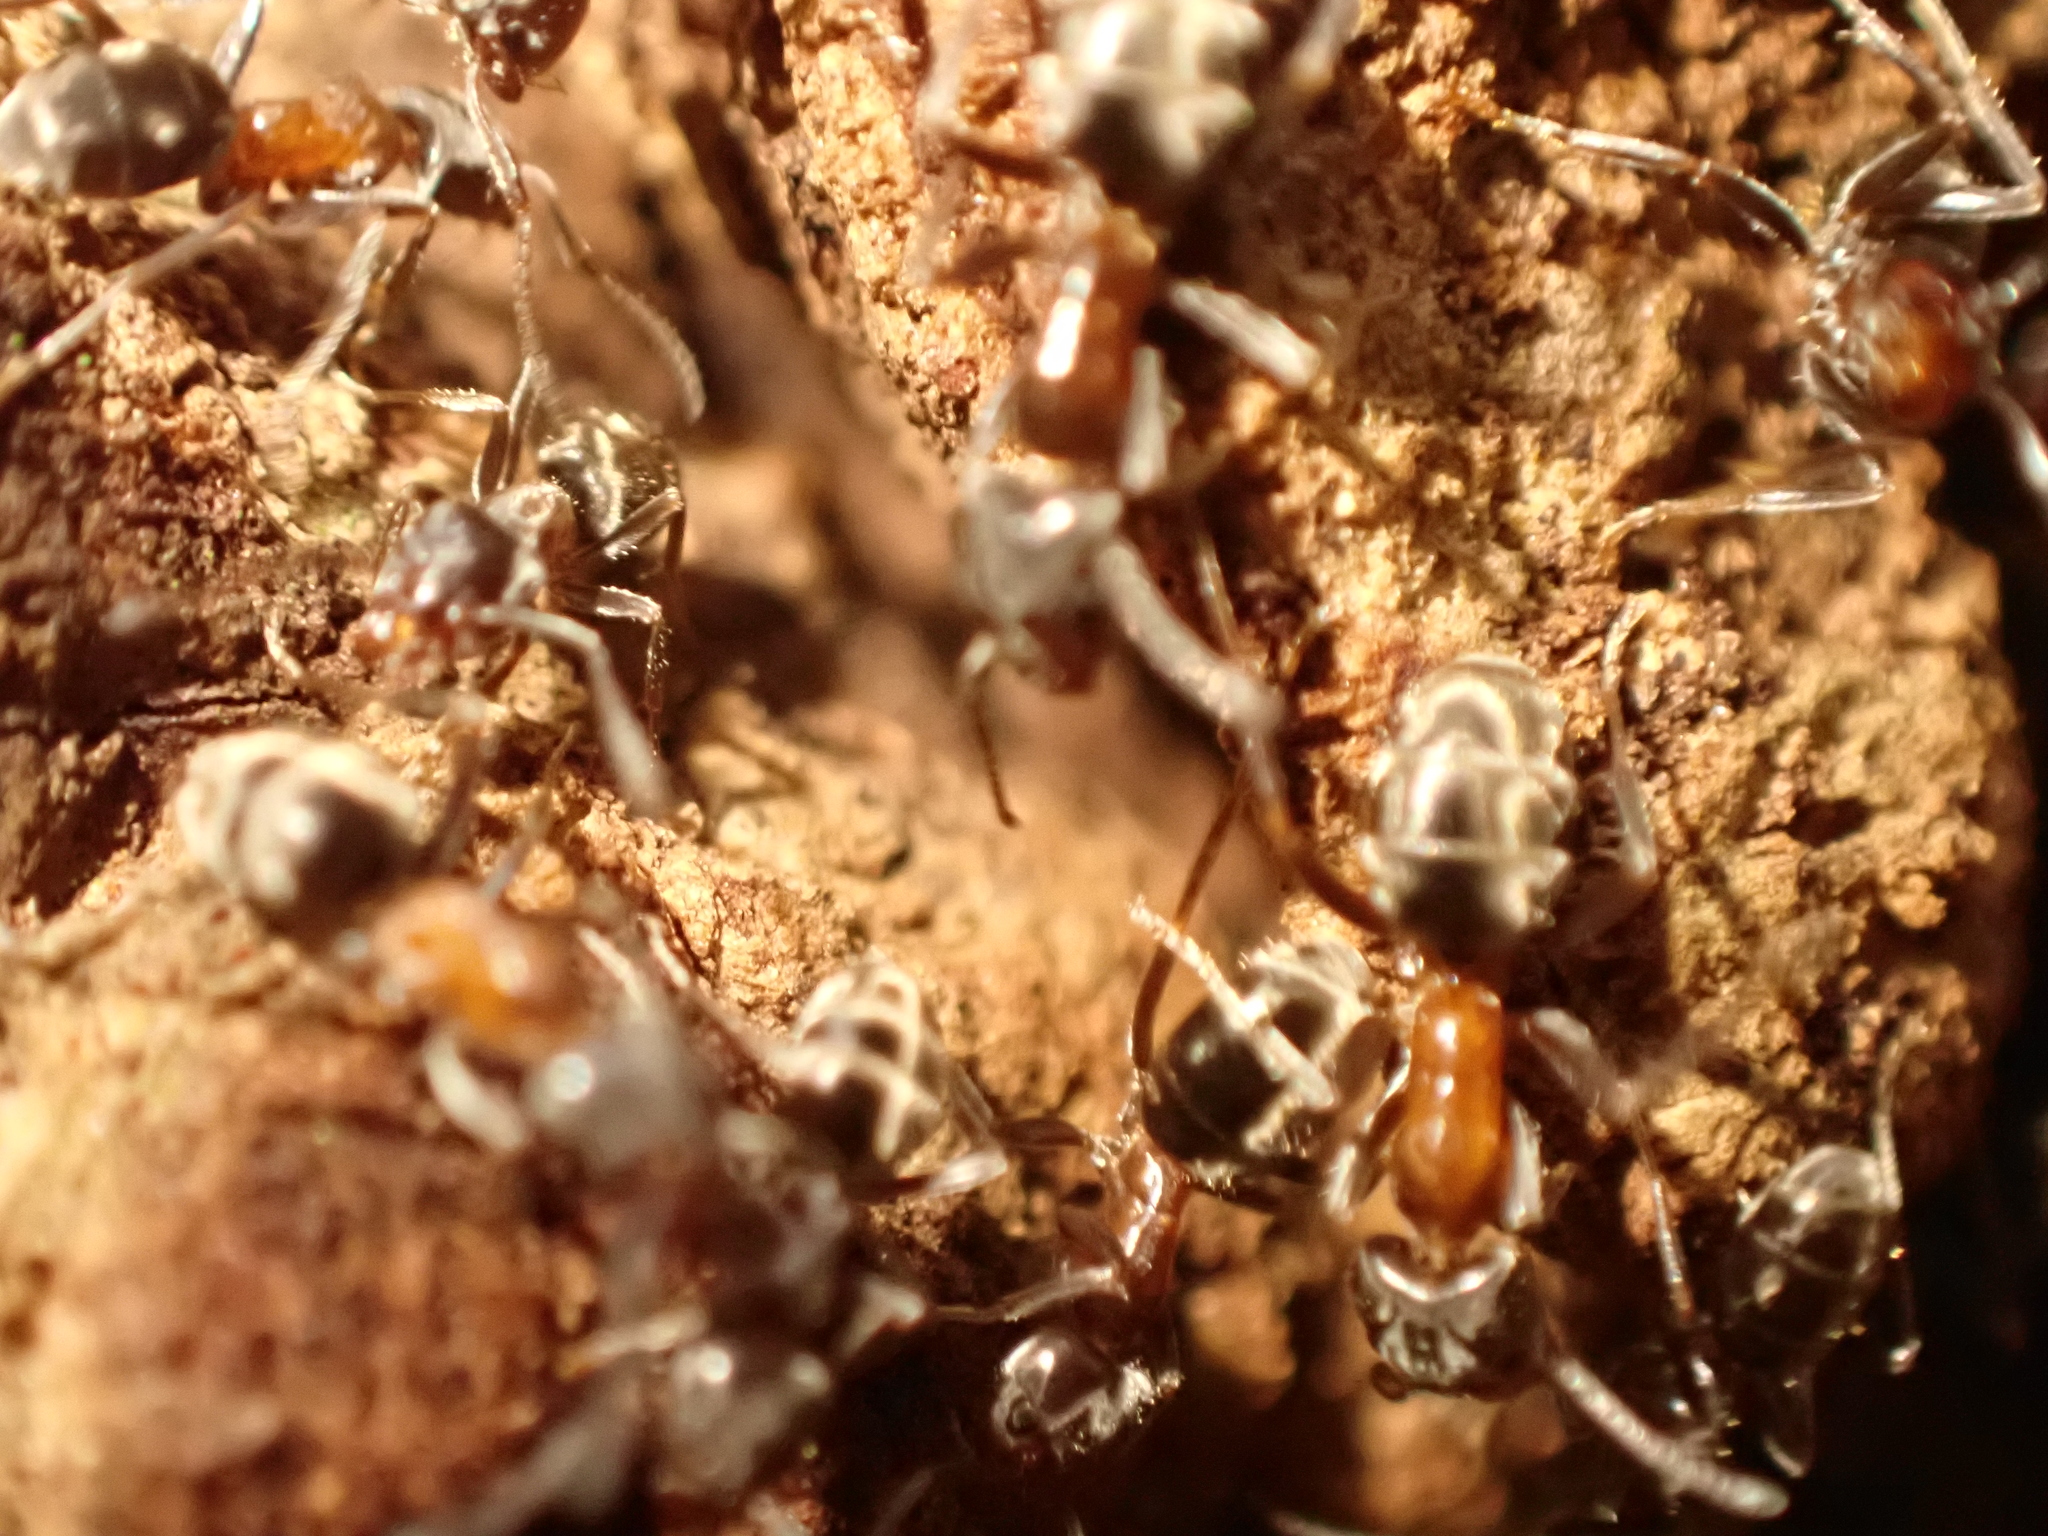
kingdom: Animalia
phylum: Arthropoda
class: Insecta
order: Hymenoptera
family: Formicidae
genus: Liometopum
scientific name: Liometopum occidentale
